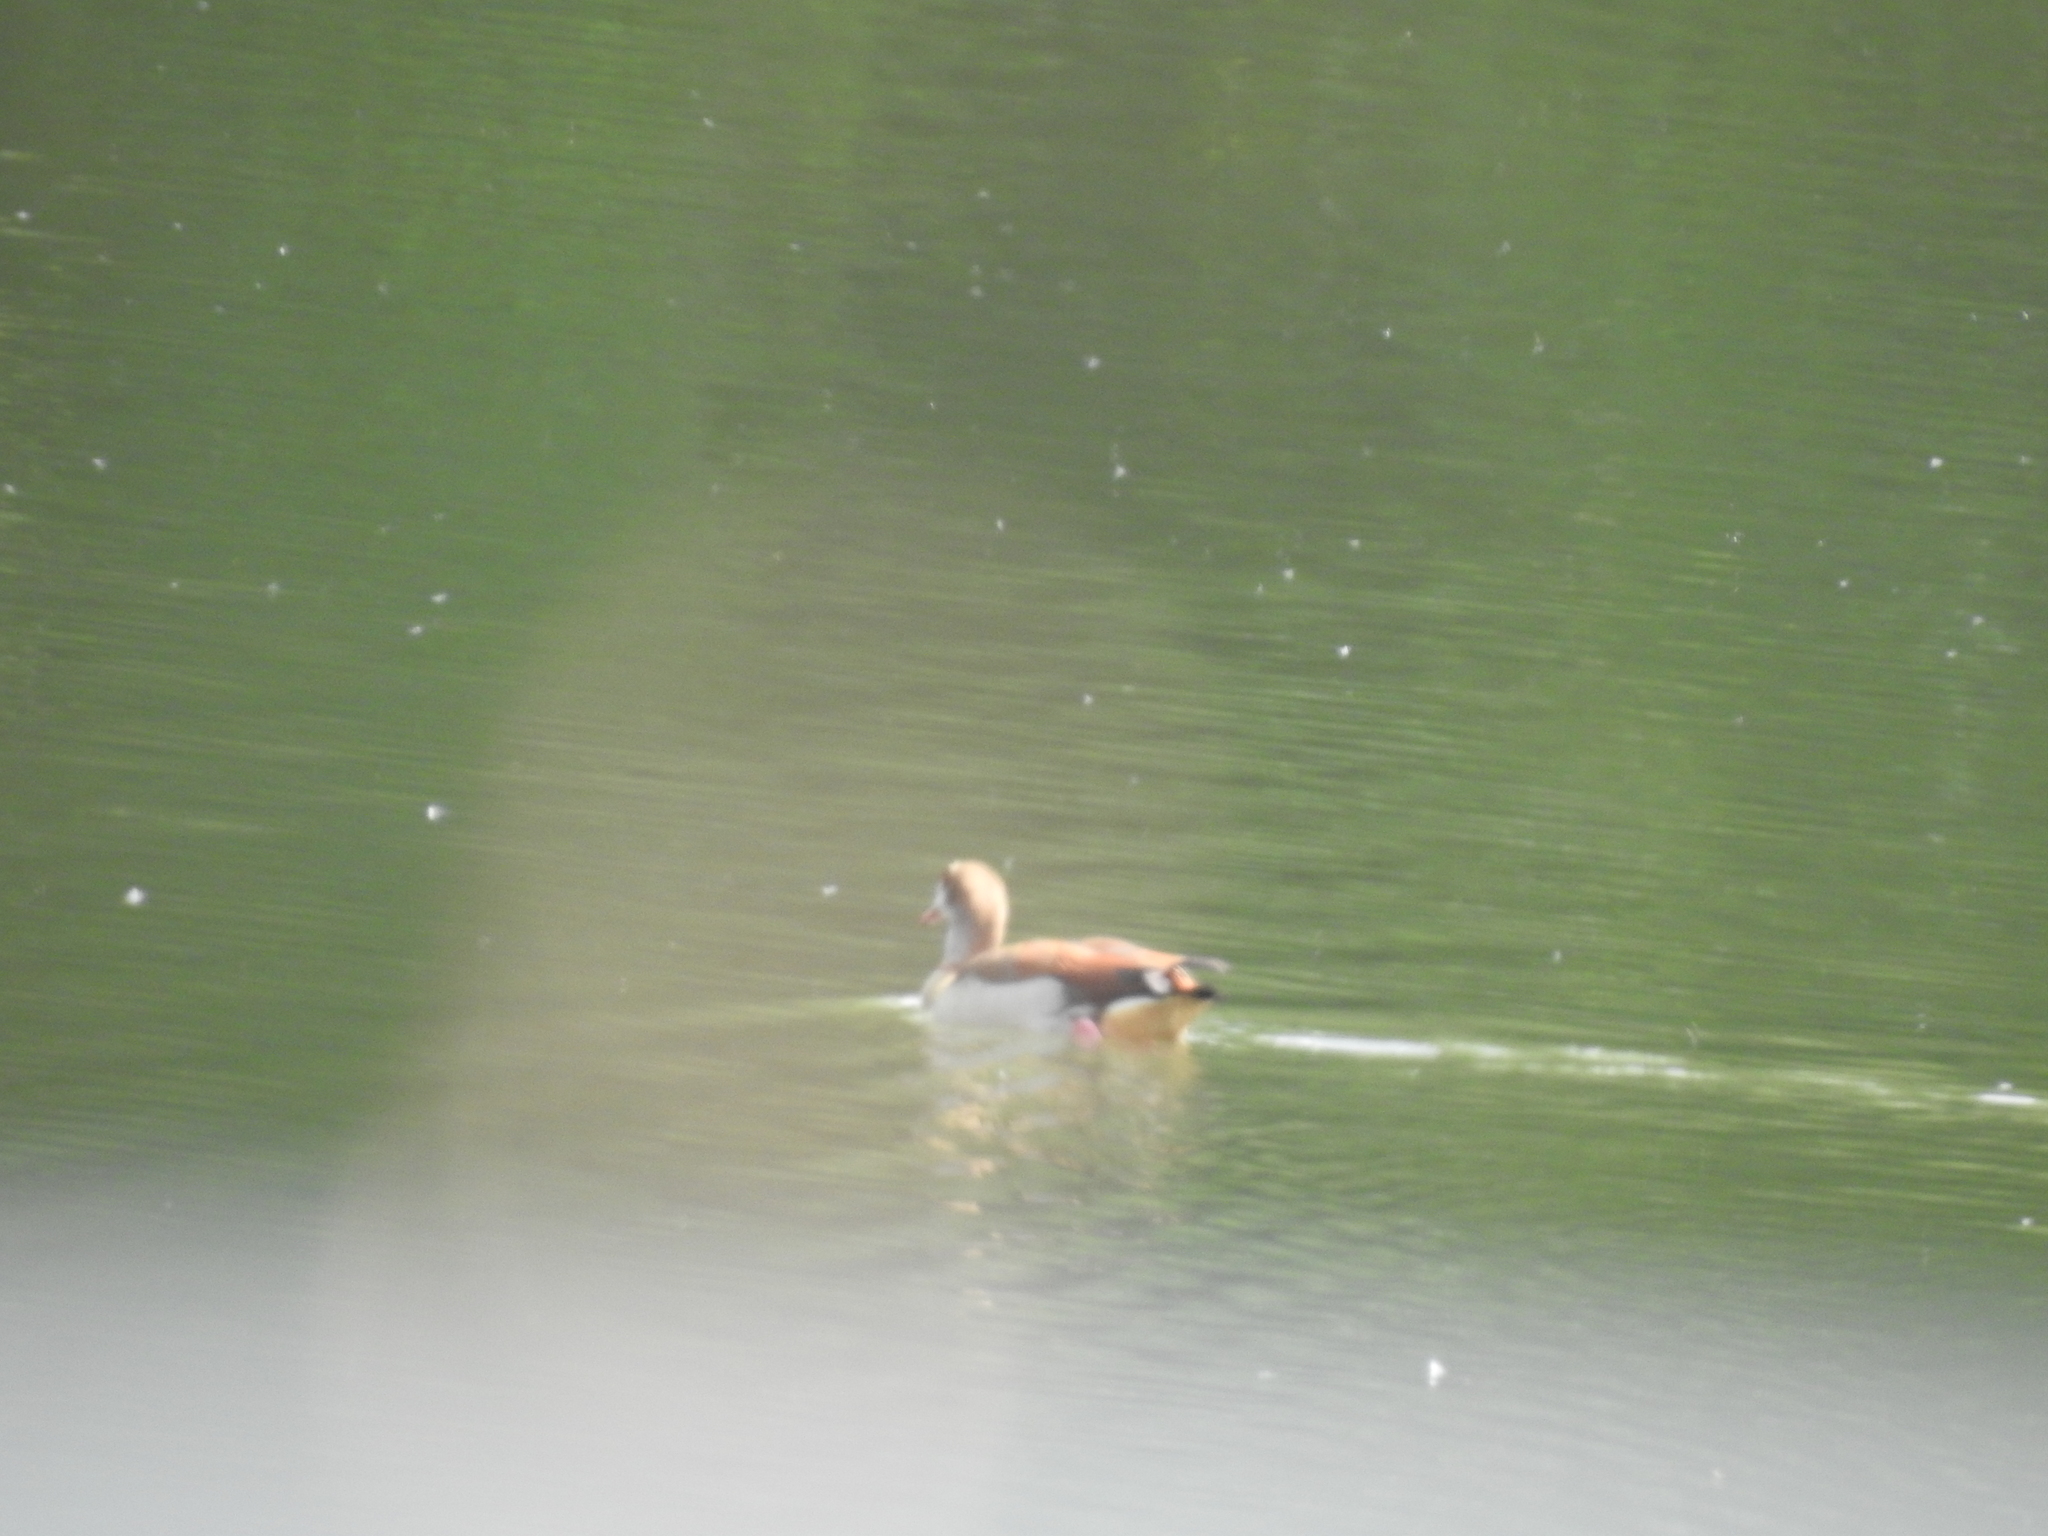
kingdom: Animalia
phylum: Chordata
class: Aves
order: Anseriformes
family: Anatidae
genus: Alopochen
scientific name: Alopochen aegyptiaca
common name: Egyptian goose
